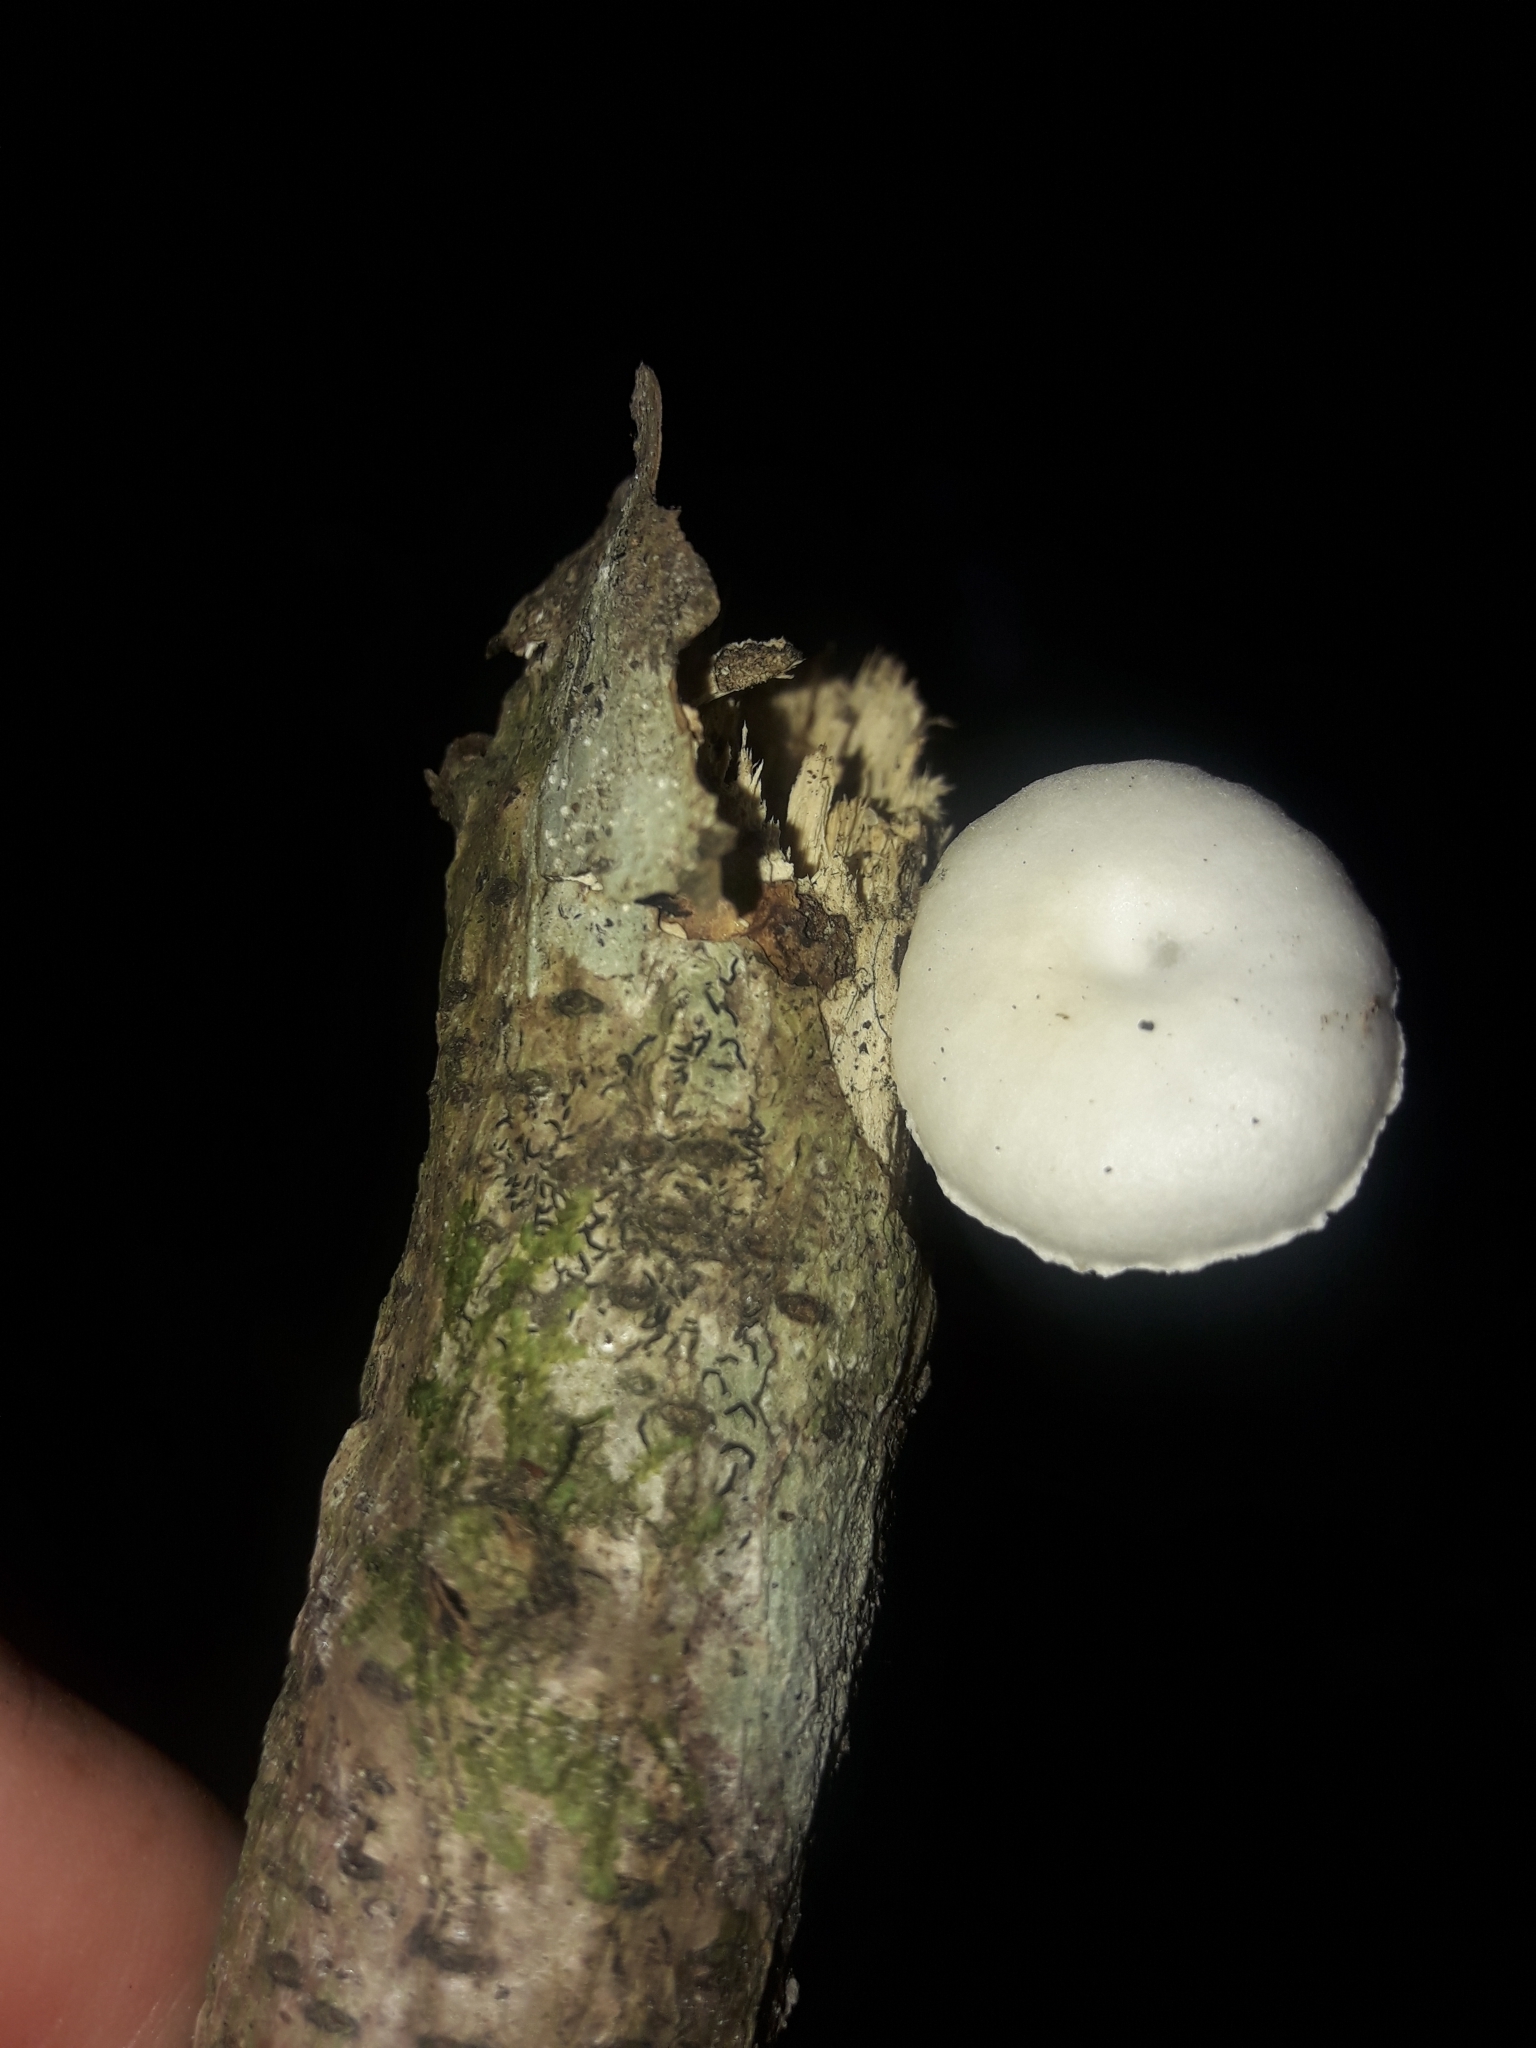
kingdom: Fungi
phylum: Basidiomycota
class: Agaricomycetes
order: Agaricales
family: Physalacriaceae
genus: Oudemansiella
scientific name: Oudemansiella australis
